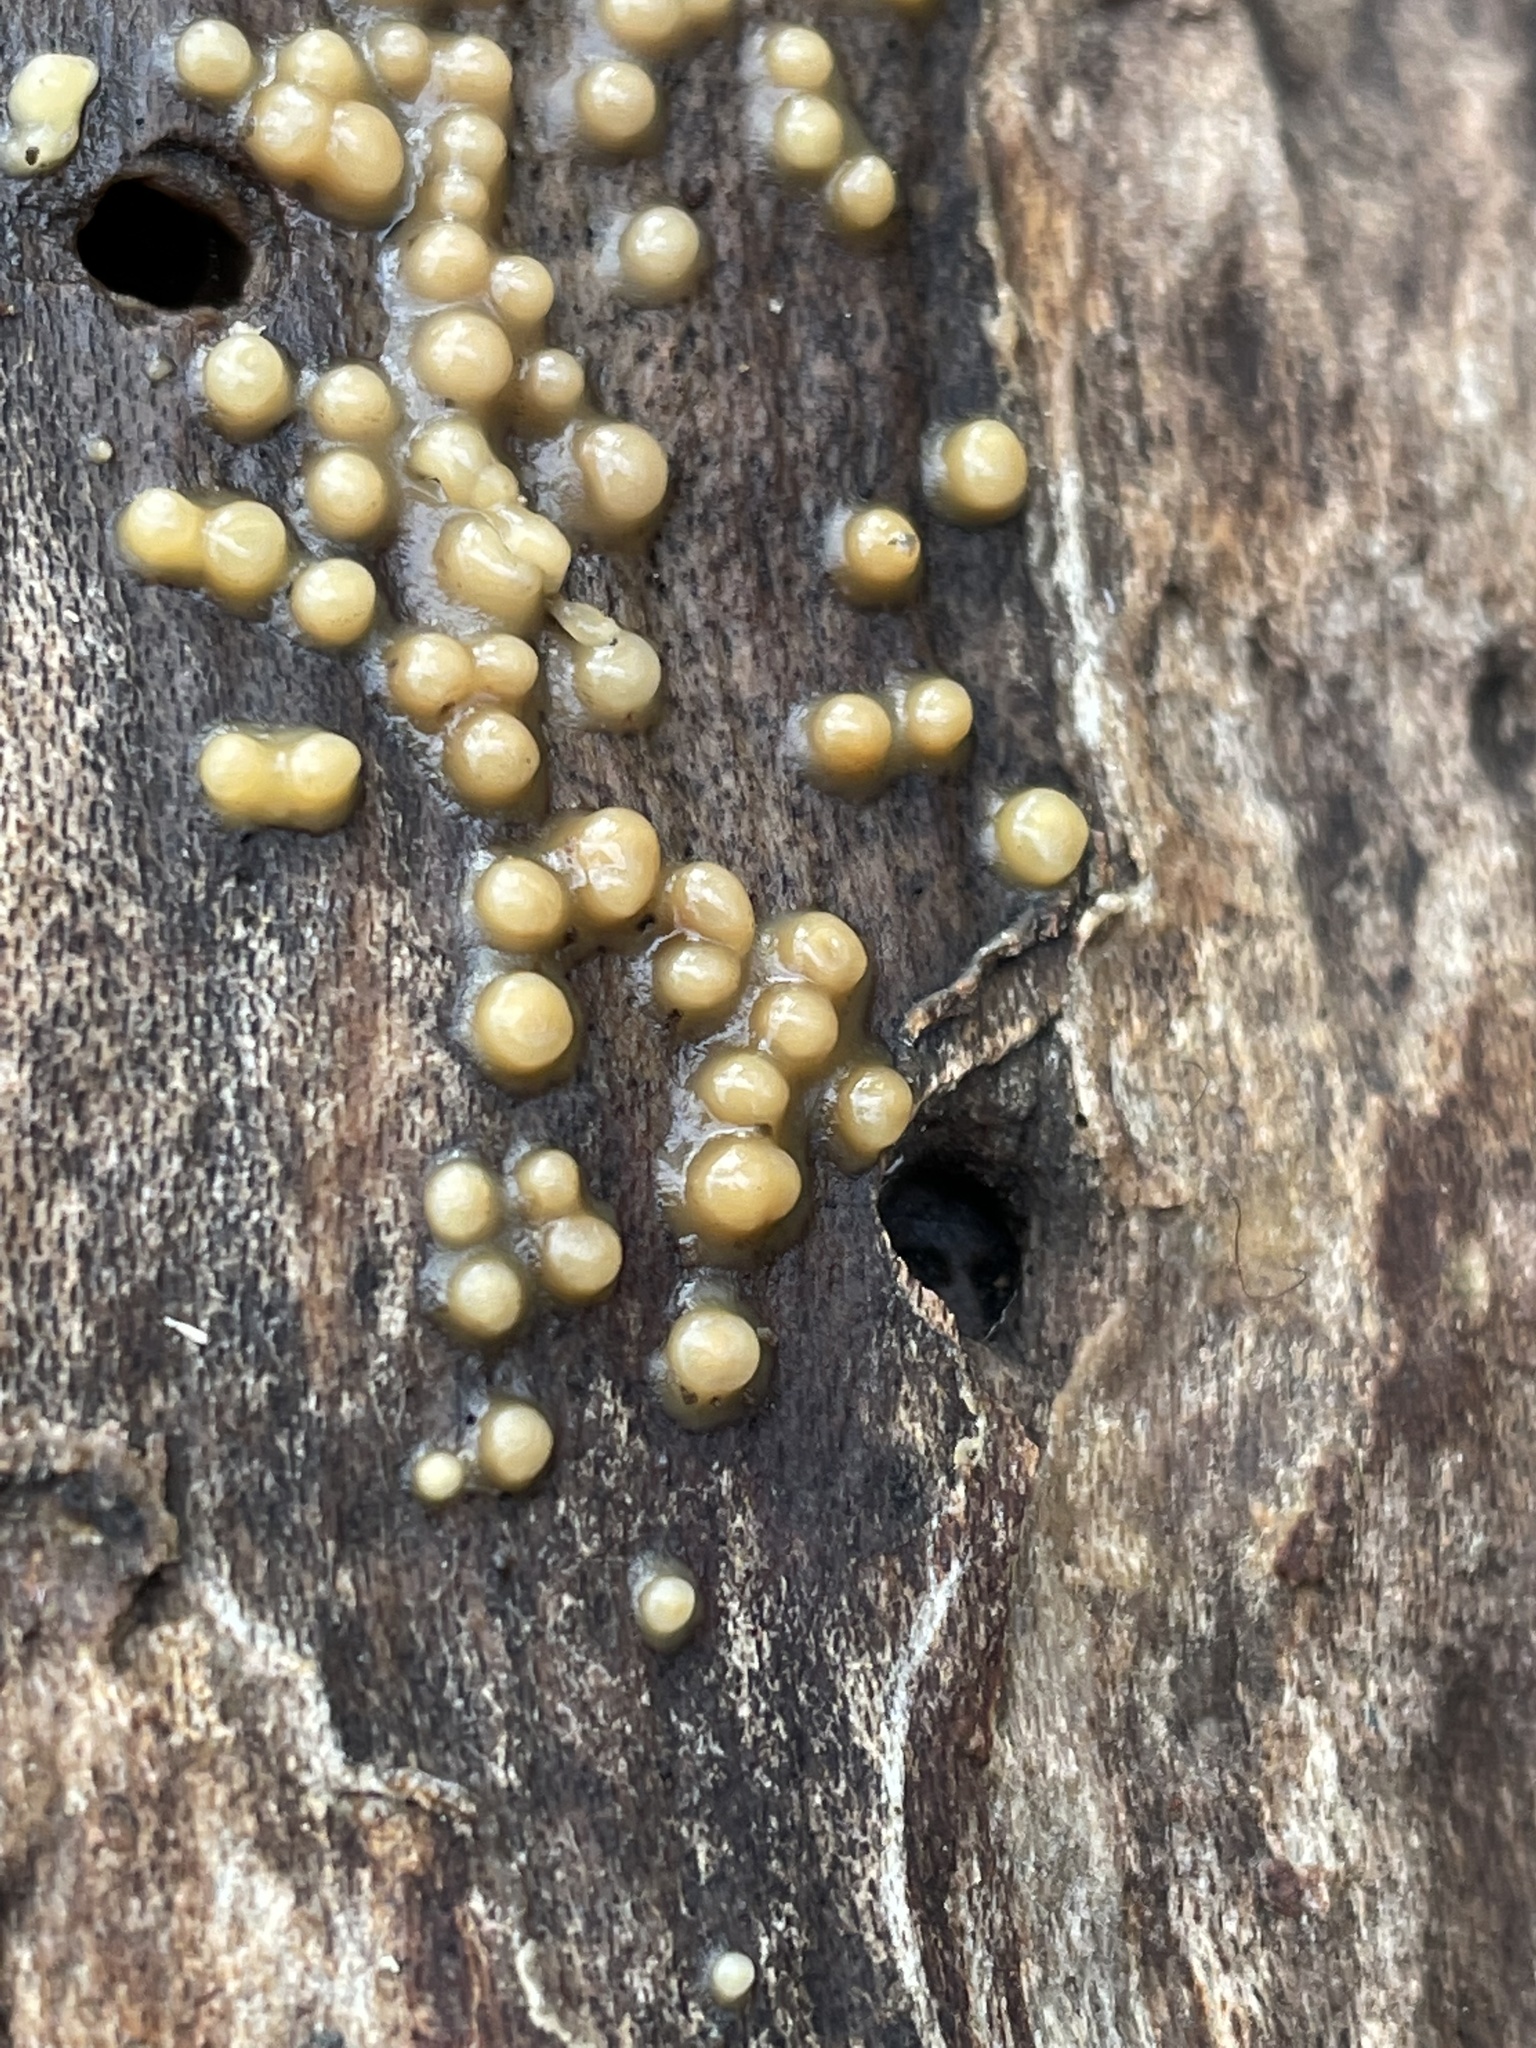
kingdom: Fungi
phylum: Basidiomycota
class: Atractiellomycetes
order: Atractiellales
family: Phleogenaceae
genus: Helicogloea
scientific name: Helicogloea compressa
